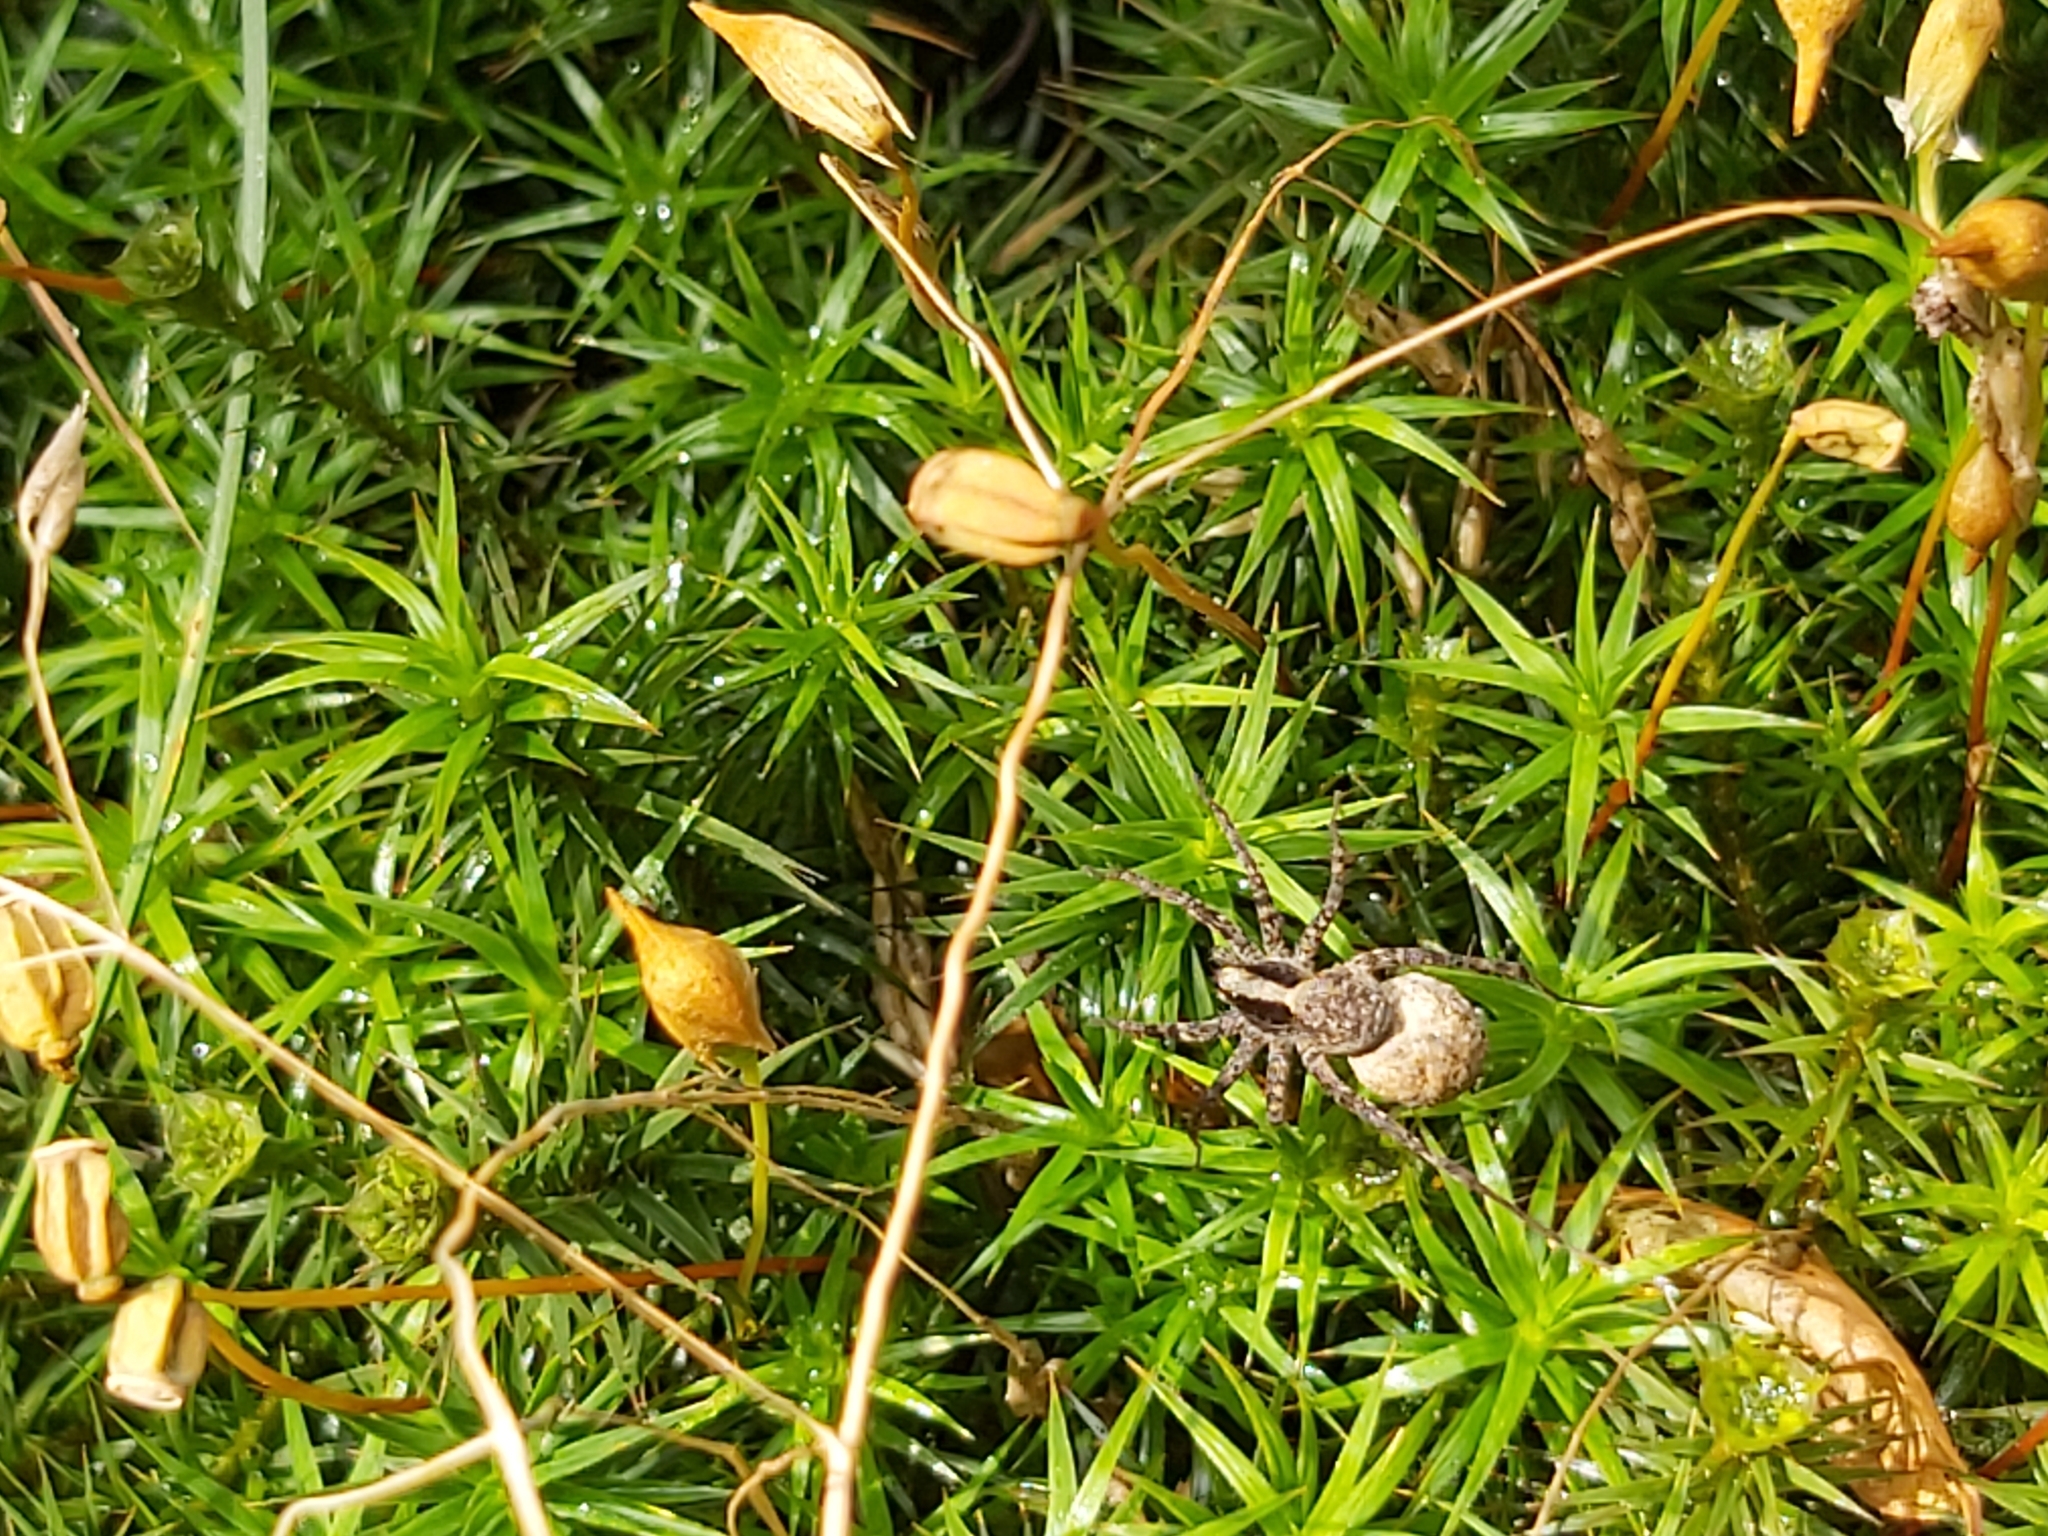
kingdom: Animalia
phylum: Arthropoda
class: Arachnida
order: Araneae
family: Lycosidae
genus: Pardosa
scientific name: Pardosa
